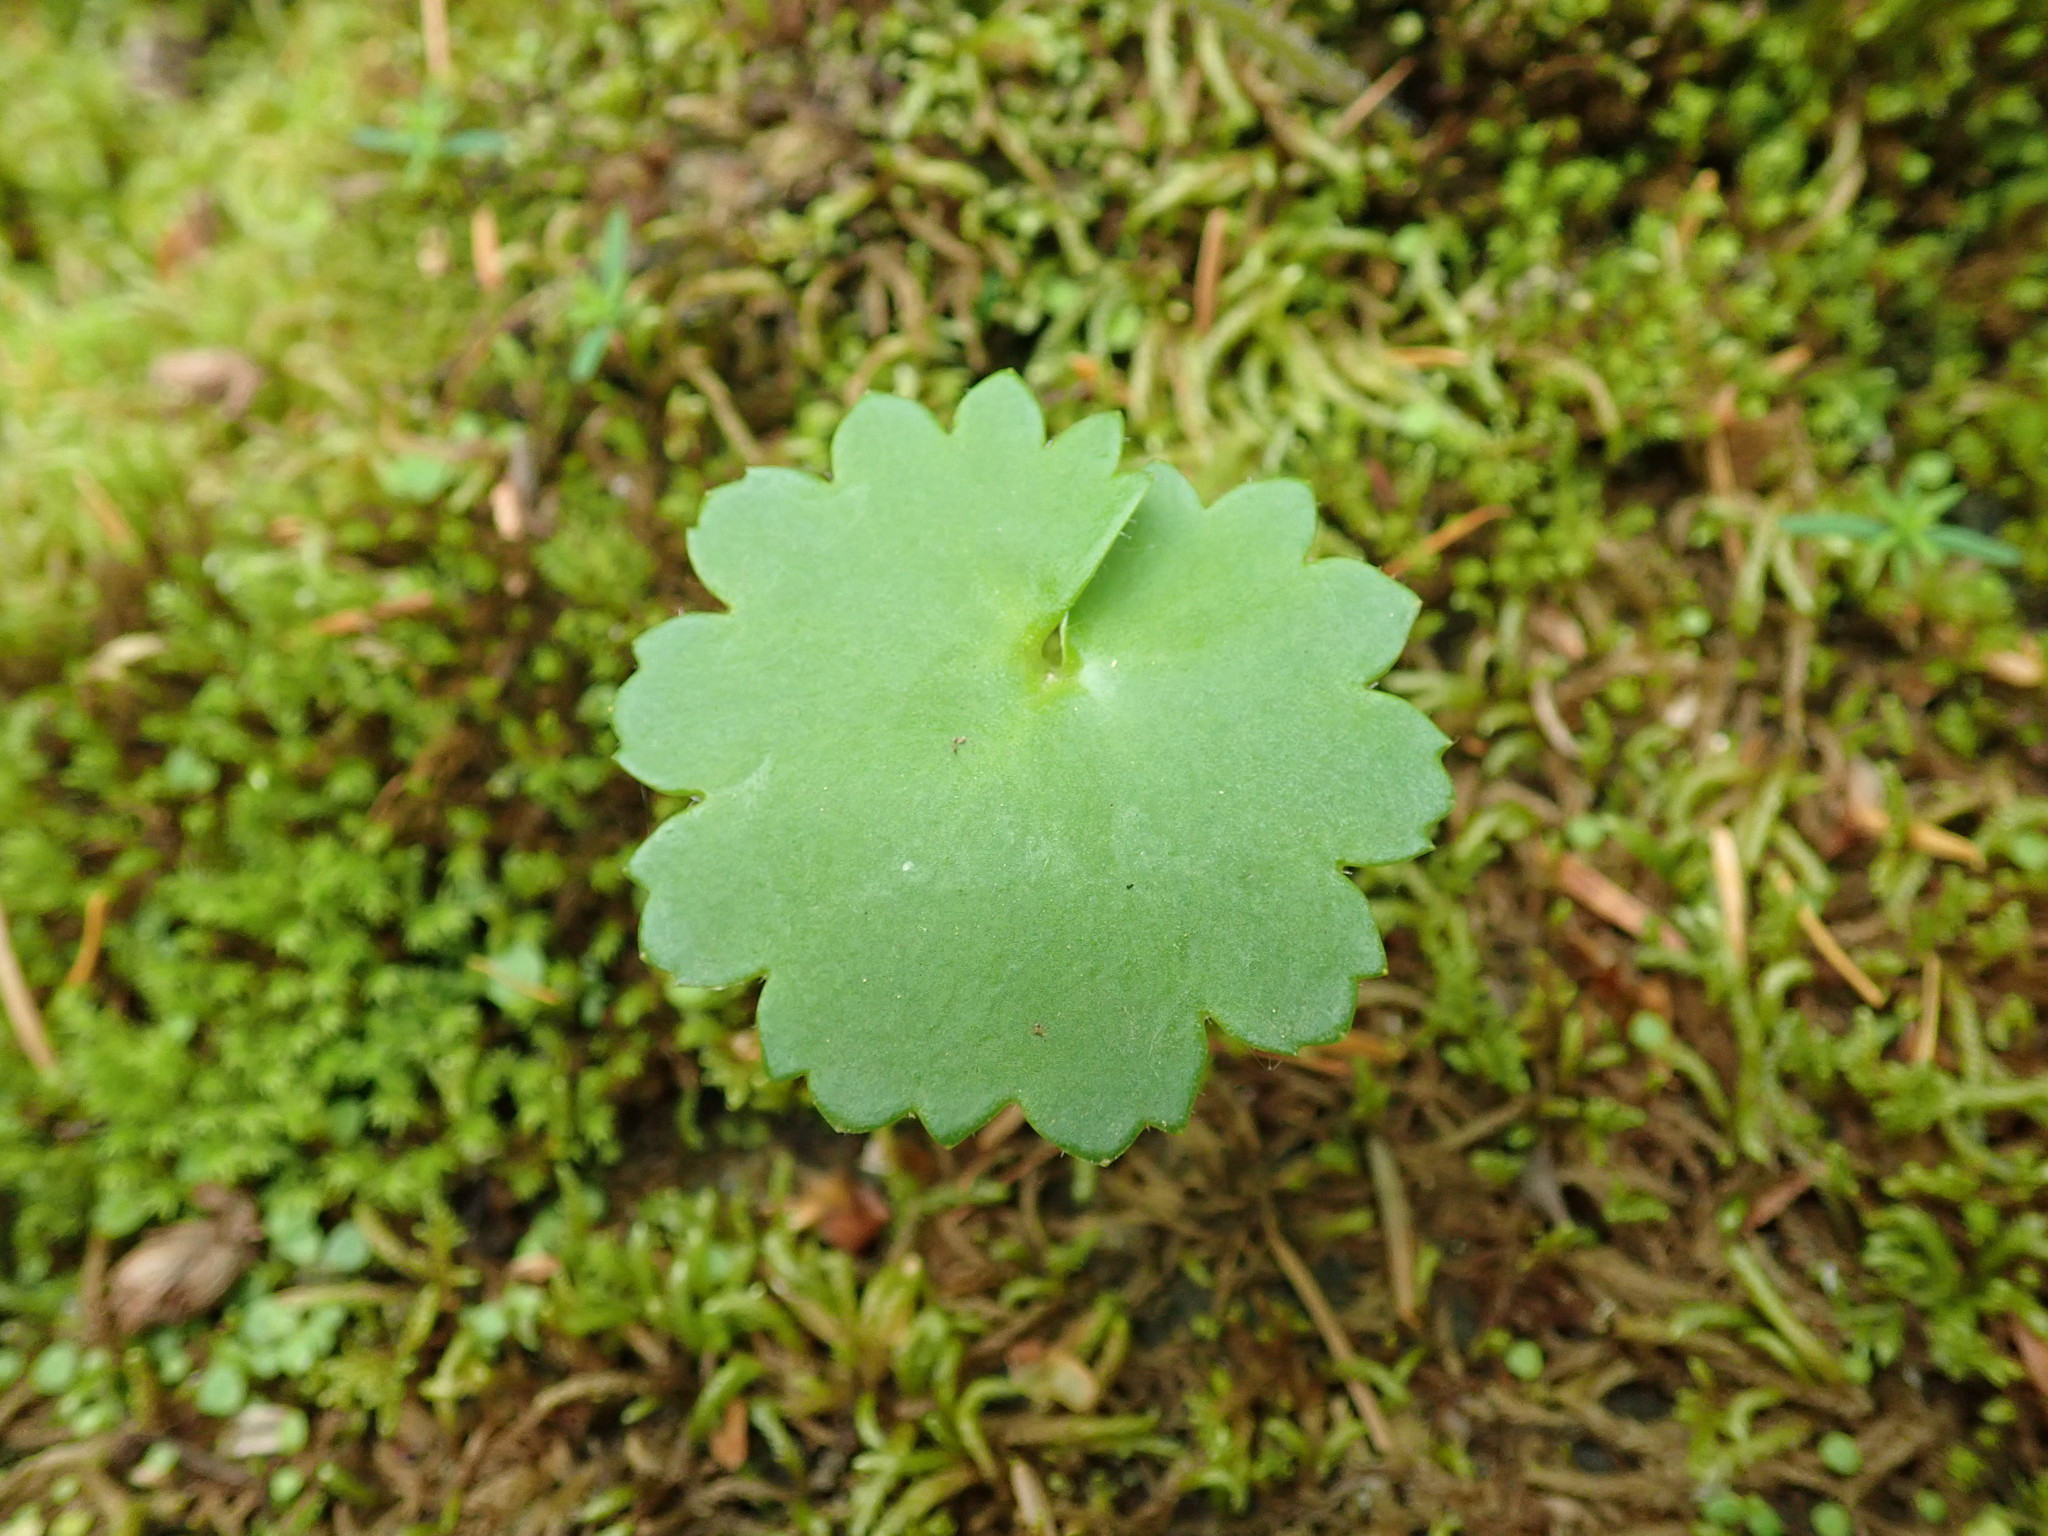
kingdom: Plantae
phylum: Tracheophyta
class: Magnoliopsida
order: Saxifragales
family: Saxifragaceae
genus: Micranthes
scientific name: Micranthes mertensiana
